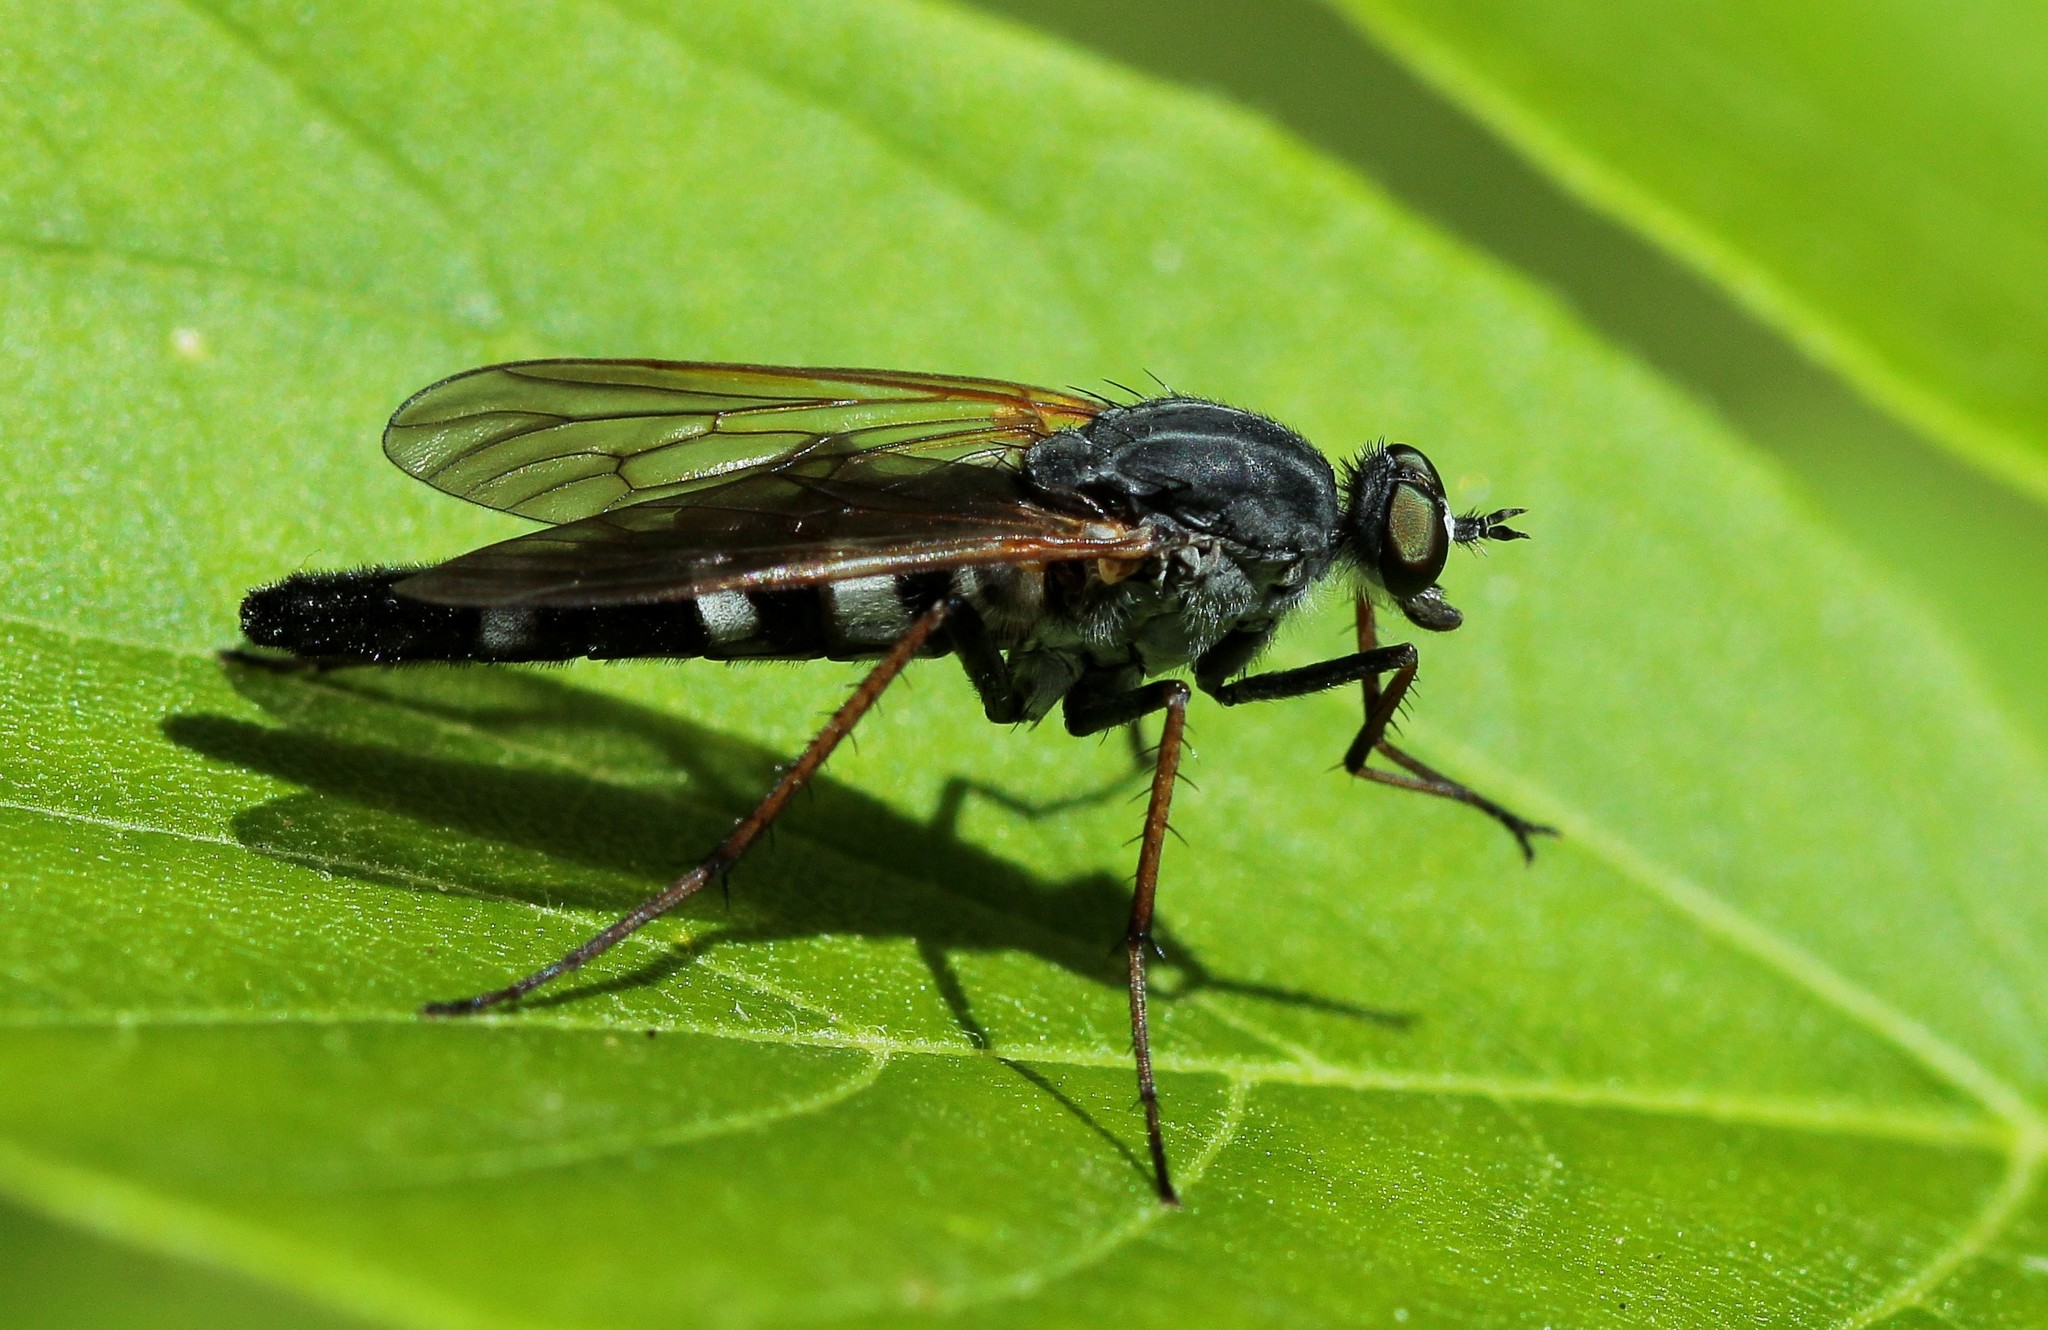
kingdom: Animalia
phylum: Arthropoda
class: Insecta
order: Diptera
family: Therevidae
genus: Pandivirilia
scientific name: Pandivirilia eximia
